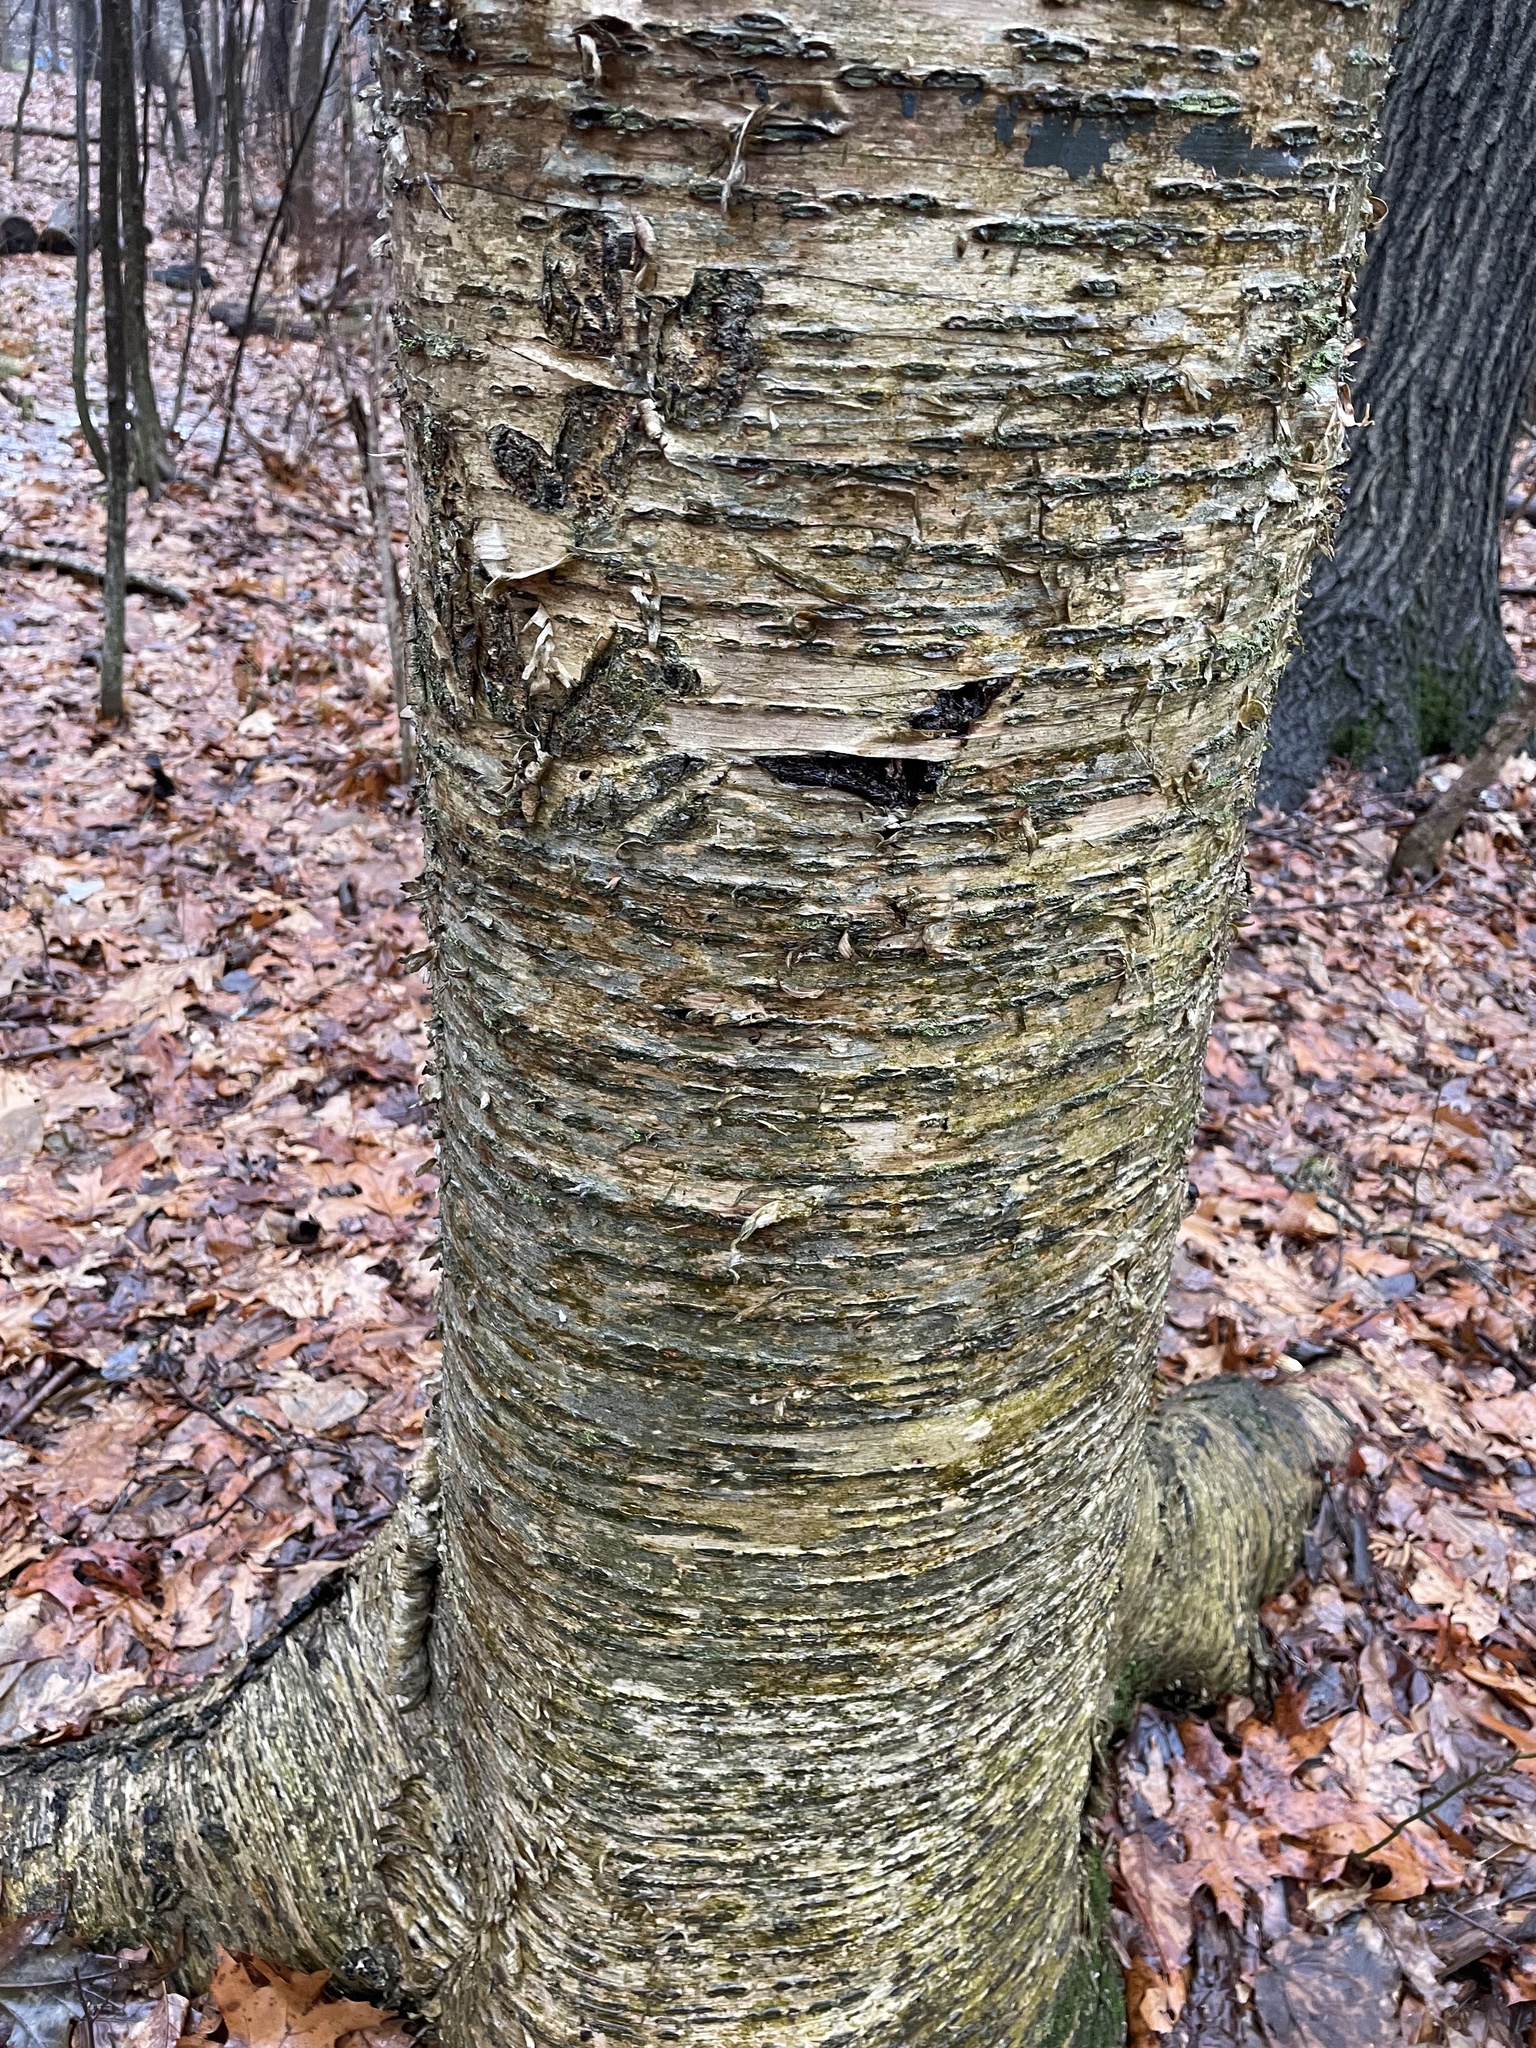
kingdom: Plantae
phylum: Tracheophyta
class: Magnoliopsida
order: Fagales
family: Betulaceae
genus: Betula
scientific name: Betula alleghaniensis
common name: Yellow birch
